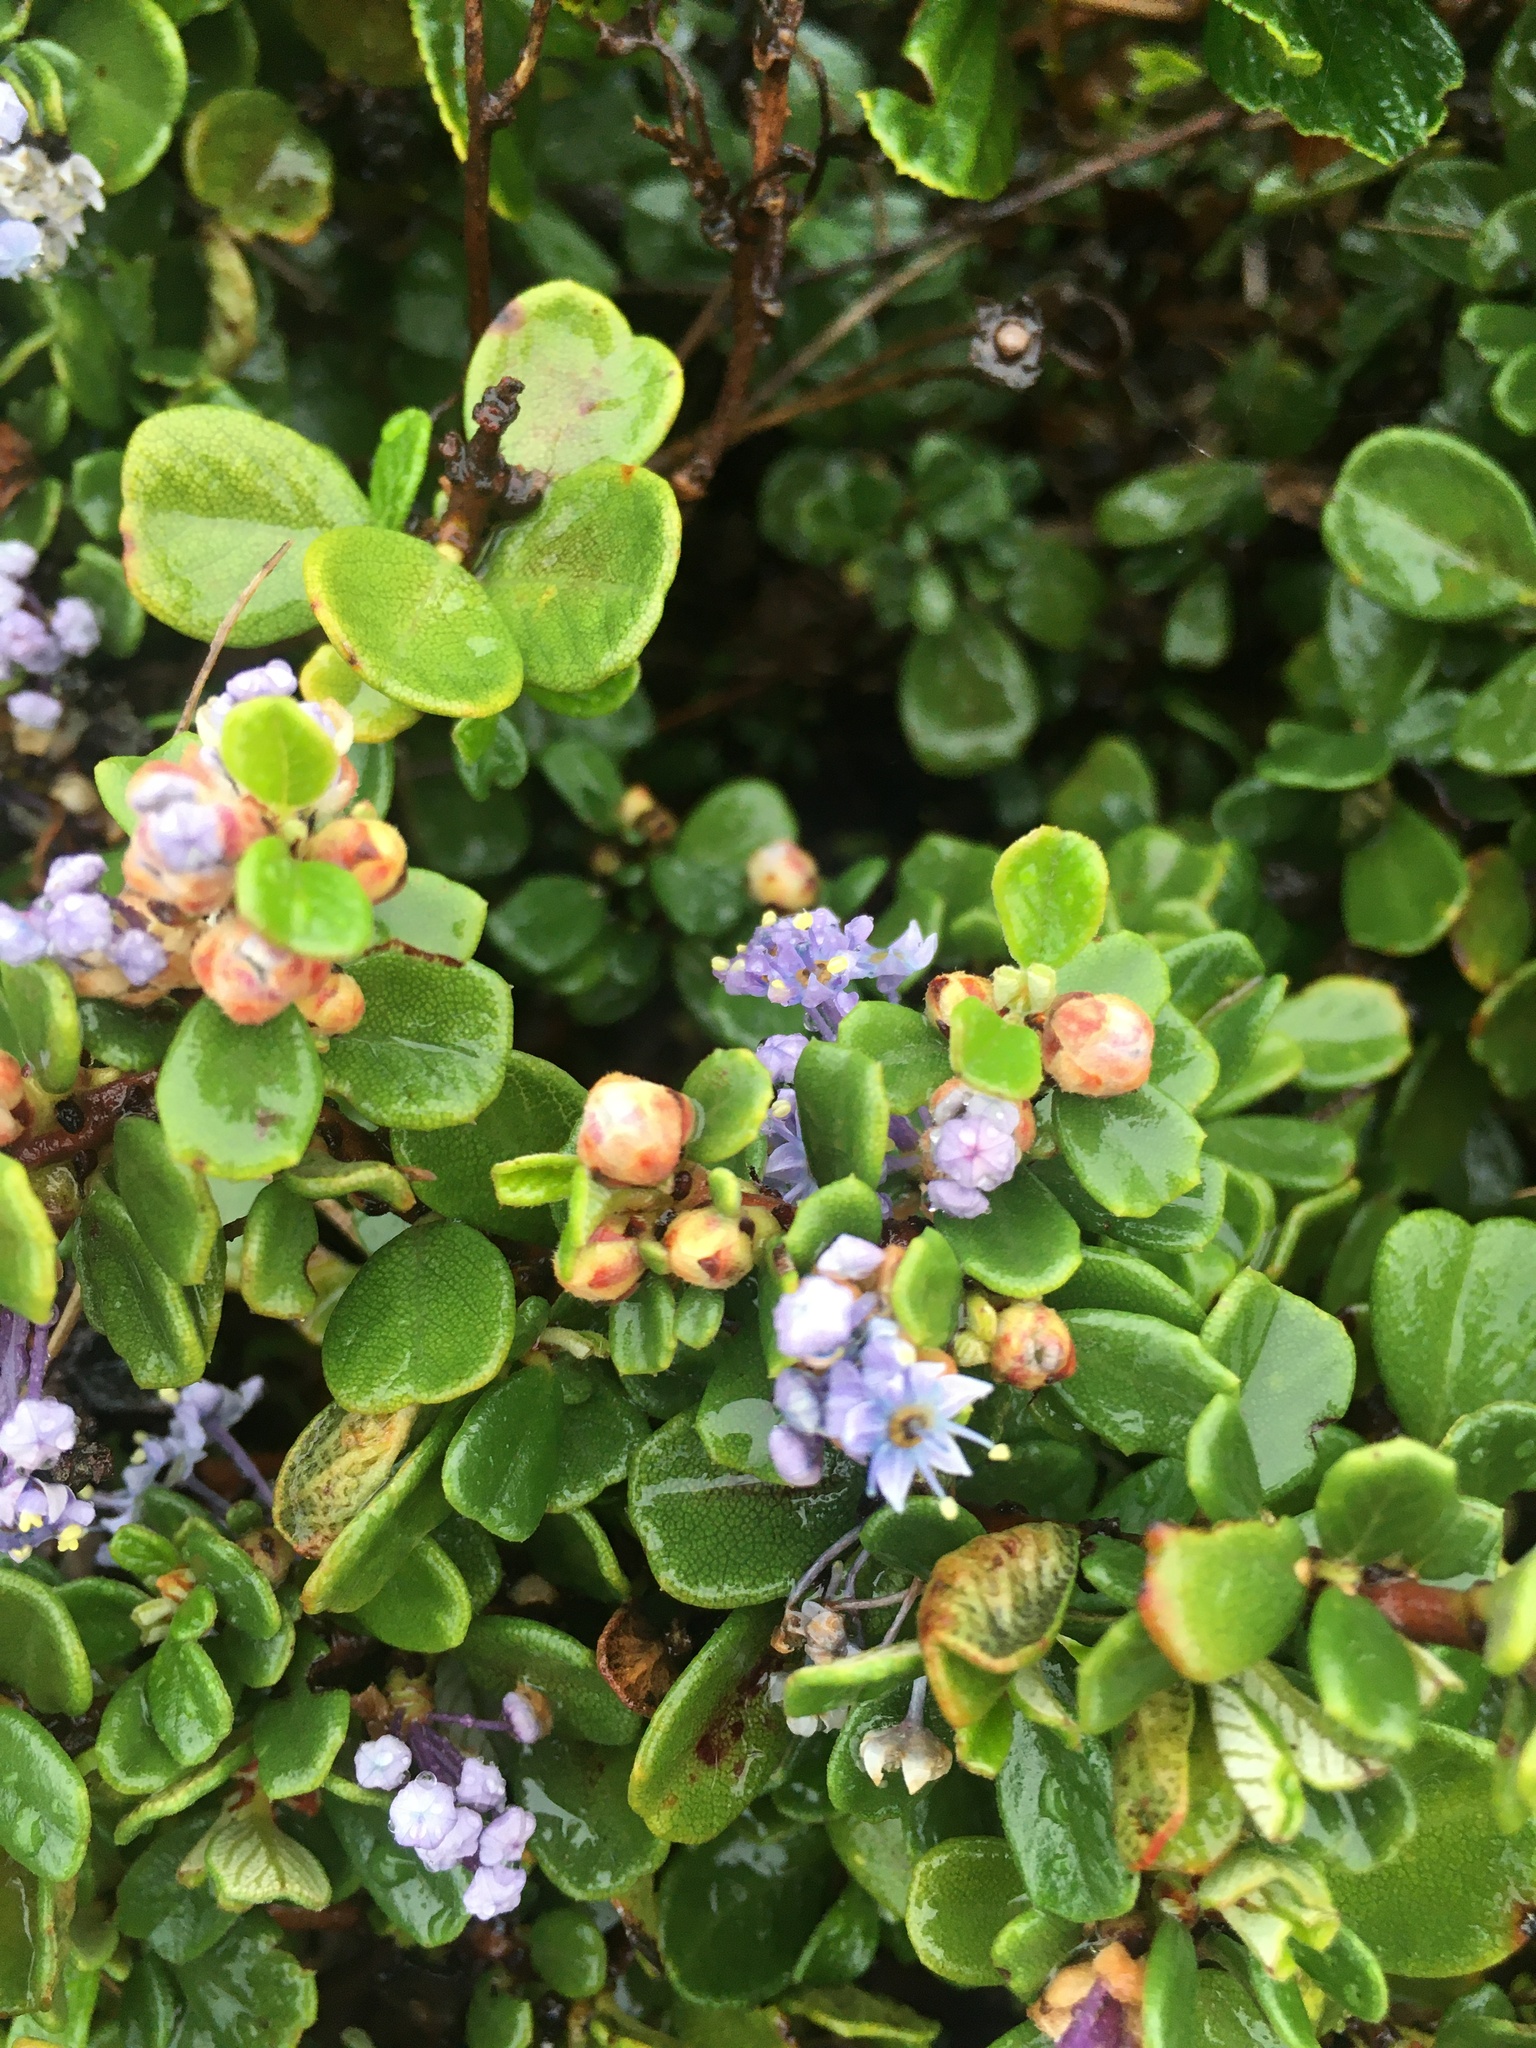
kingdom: Plantae
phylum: Tracheophyta
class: Magnoliopsida
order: Rosales
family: Rhamnaceae
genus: Ceanothus
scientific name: Ceanothus maritimus
